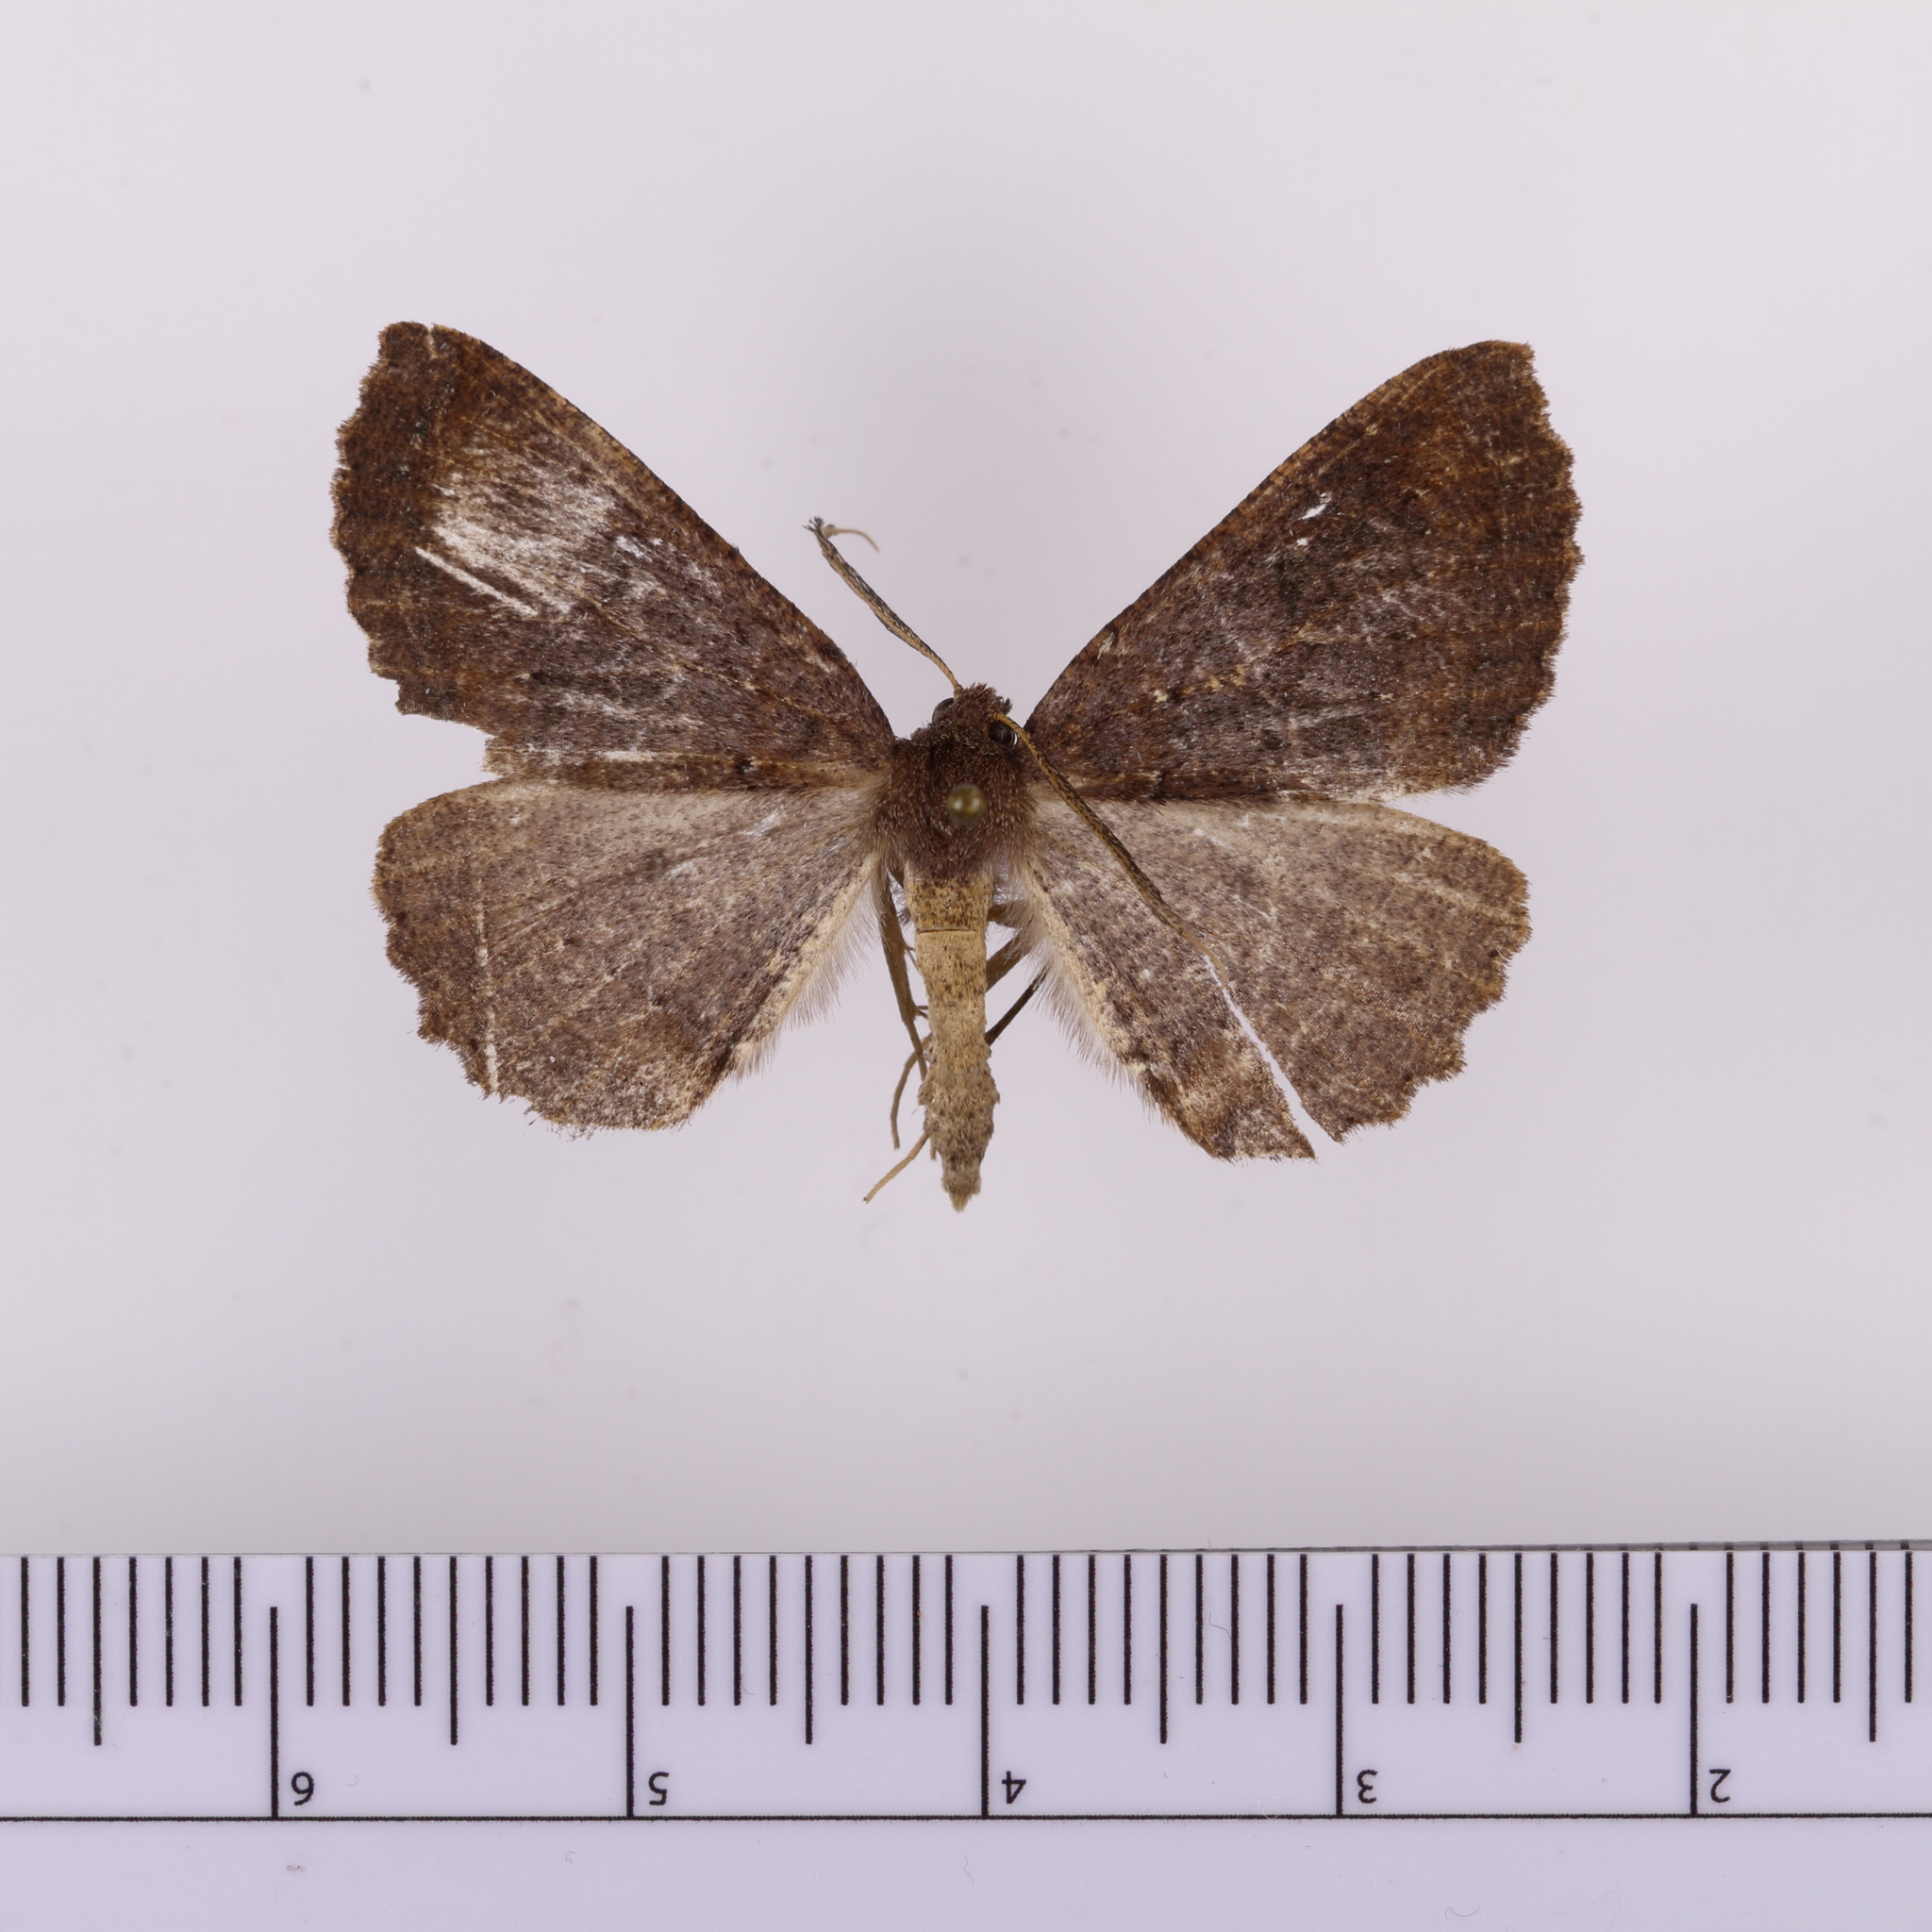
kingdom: Animalia
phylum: Arthropoda
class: Insecta
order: Lepidoptera
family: Geometridae
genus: Cleora
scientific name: Cleora scriptaria
